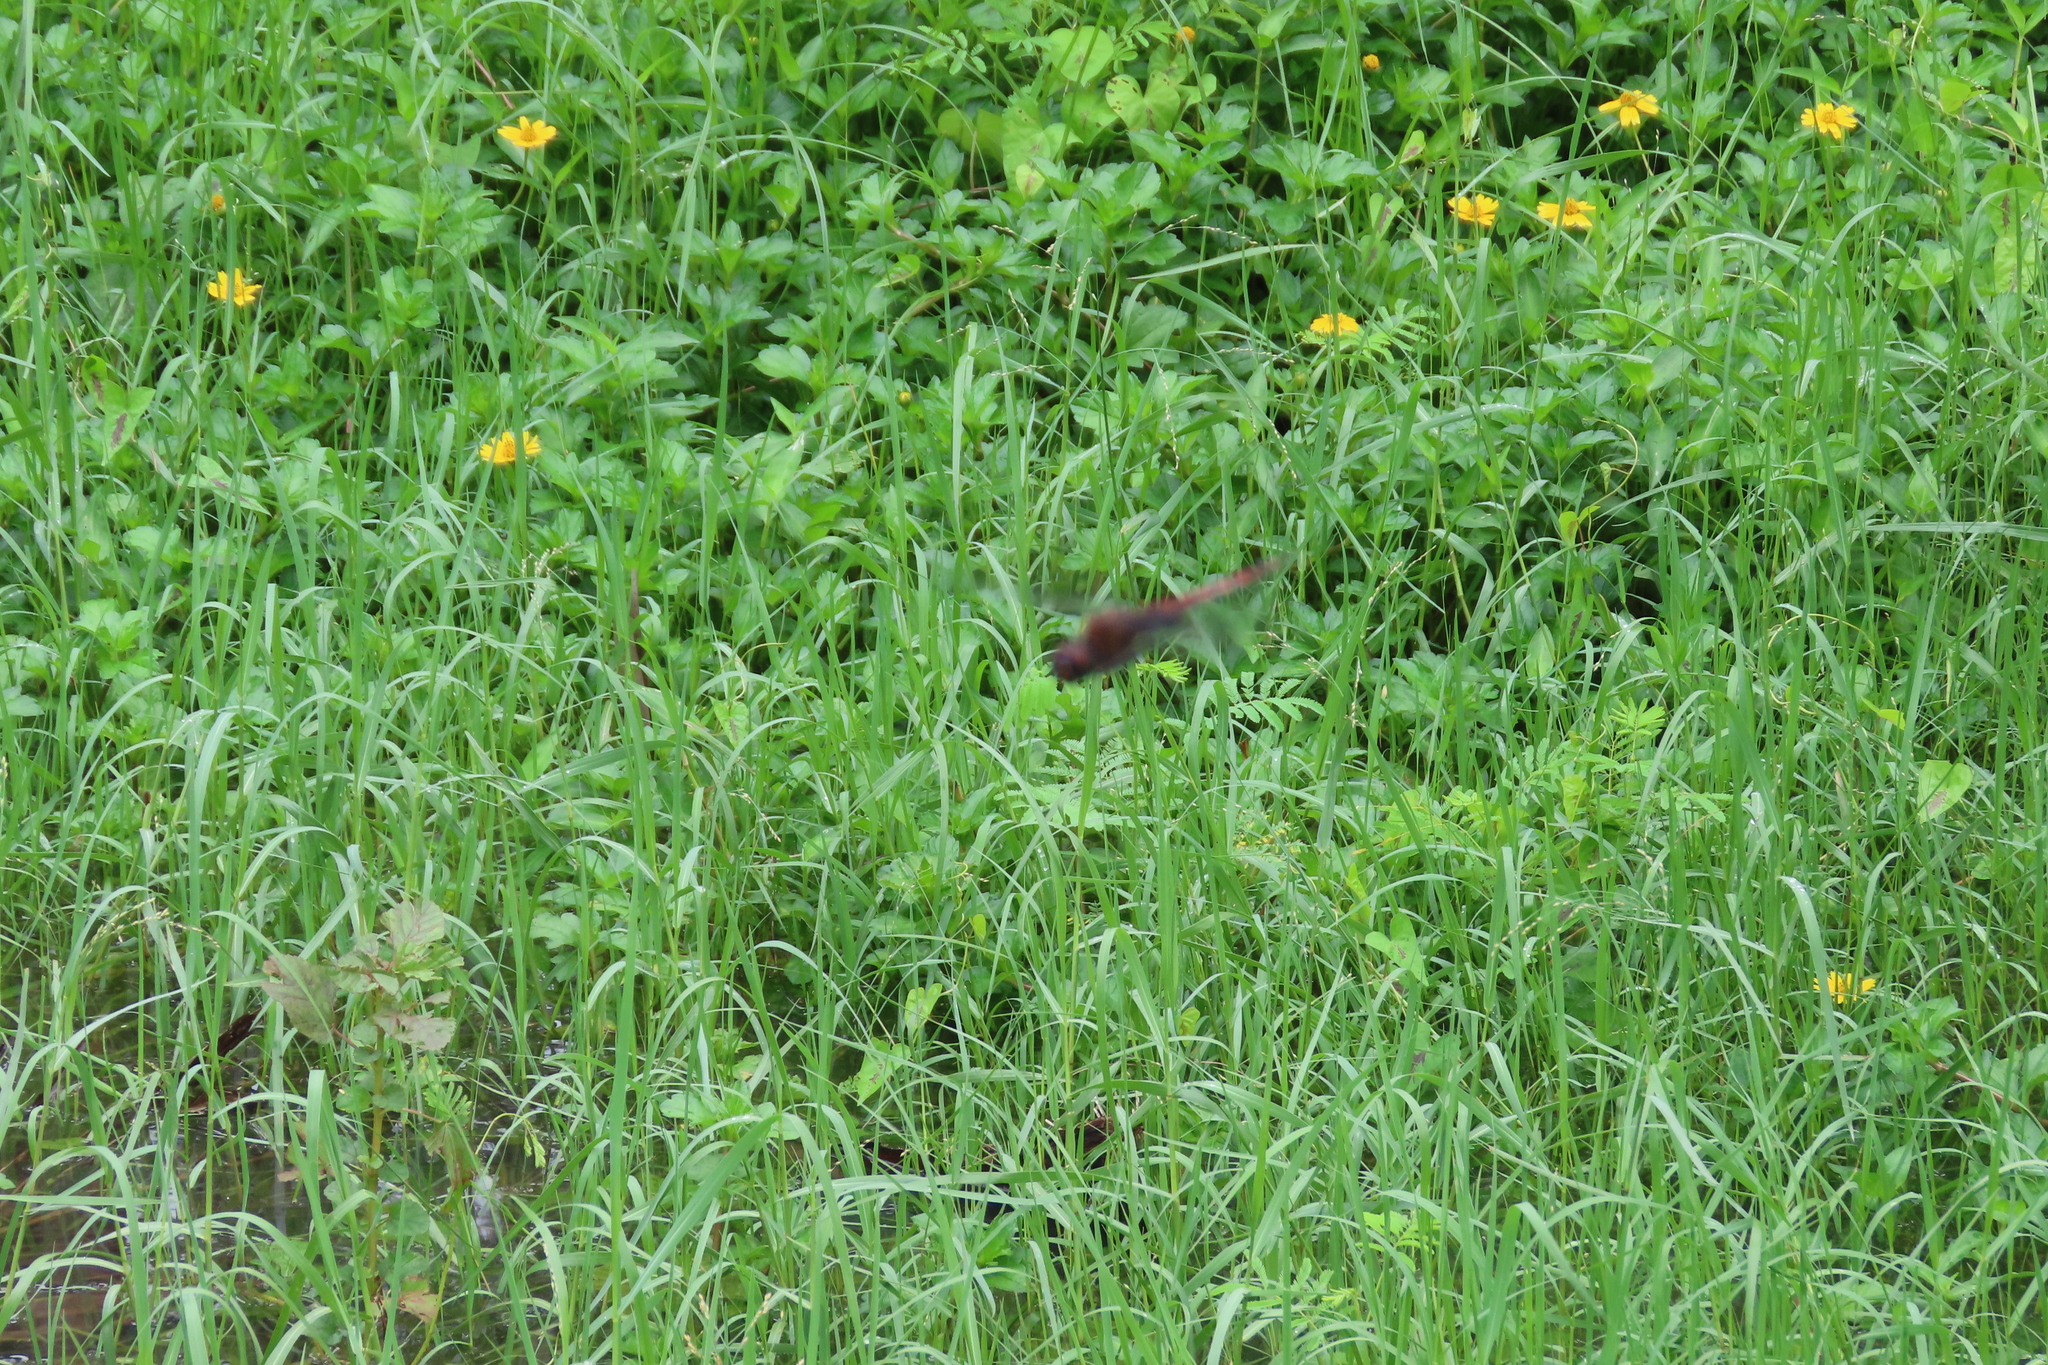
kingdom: Animalia
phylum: Arthropoda
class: Insecta
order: Odonata
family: Libellulidae
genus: Tramea
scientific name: Tramea limbata
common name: Ferruginous glider
